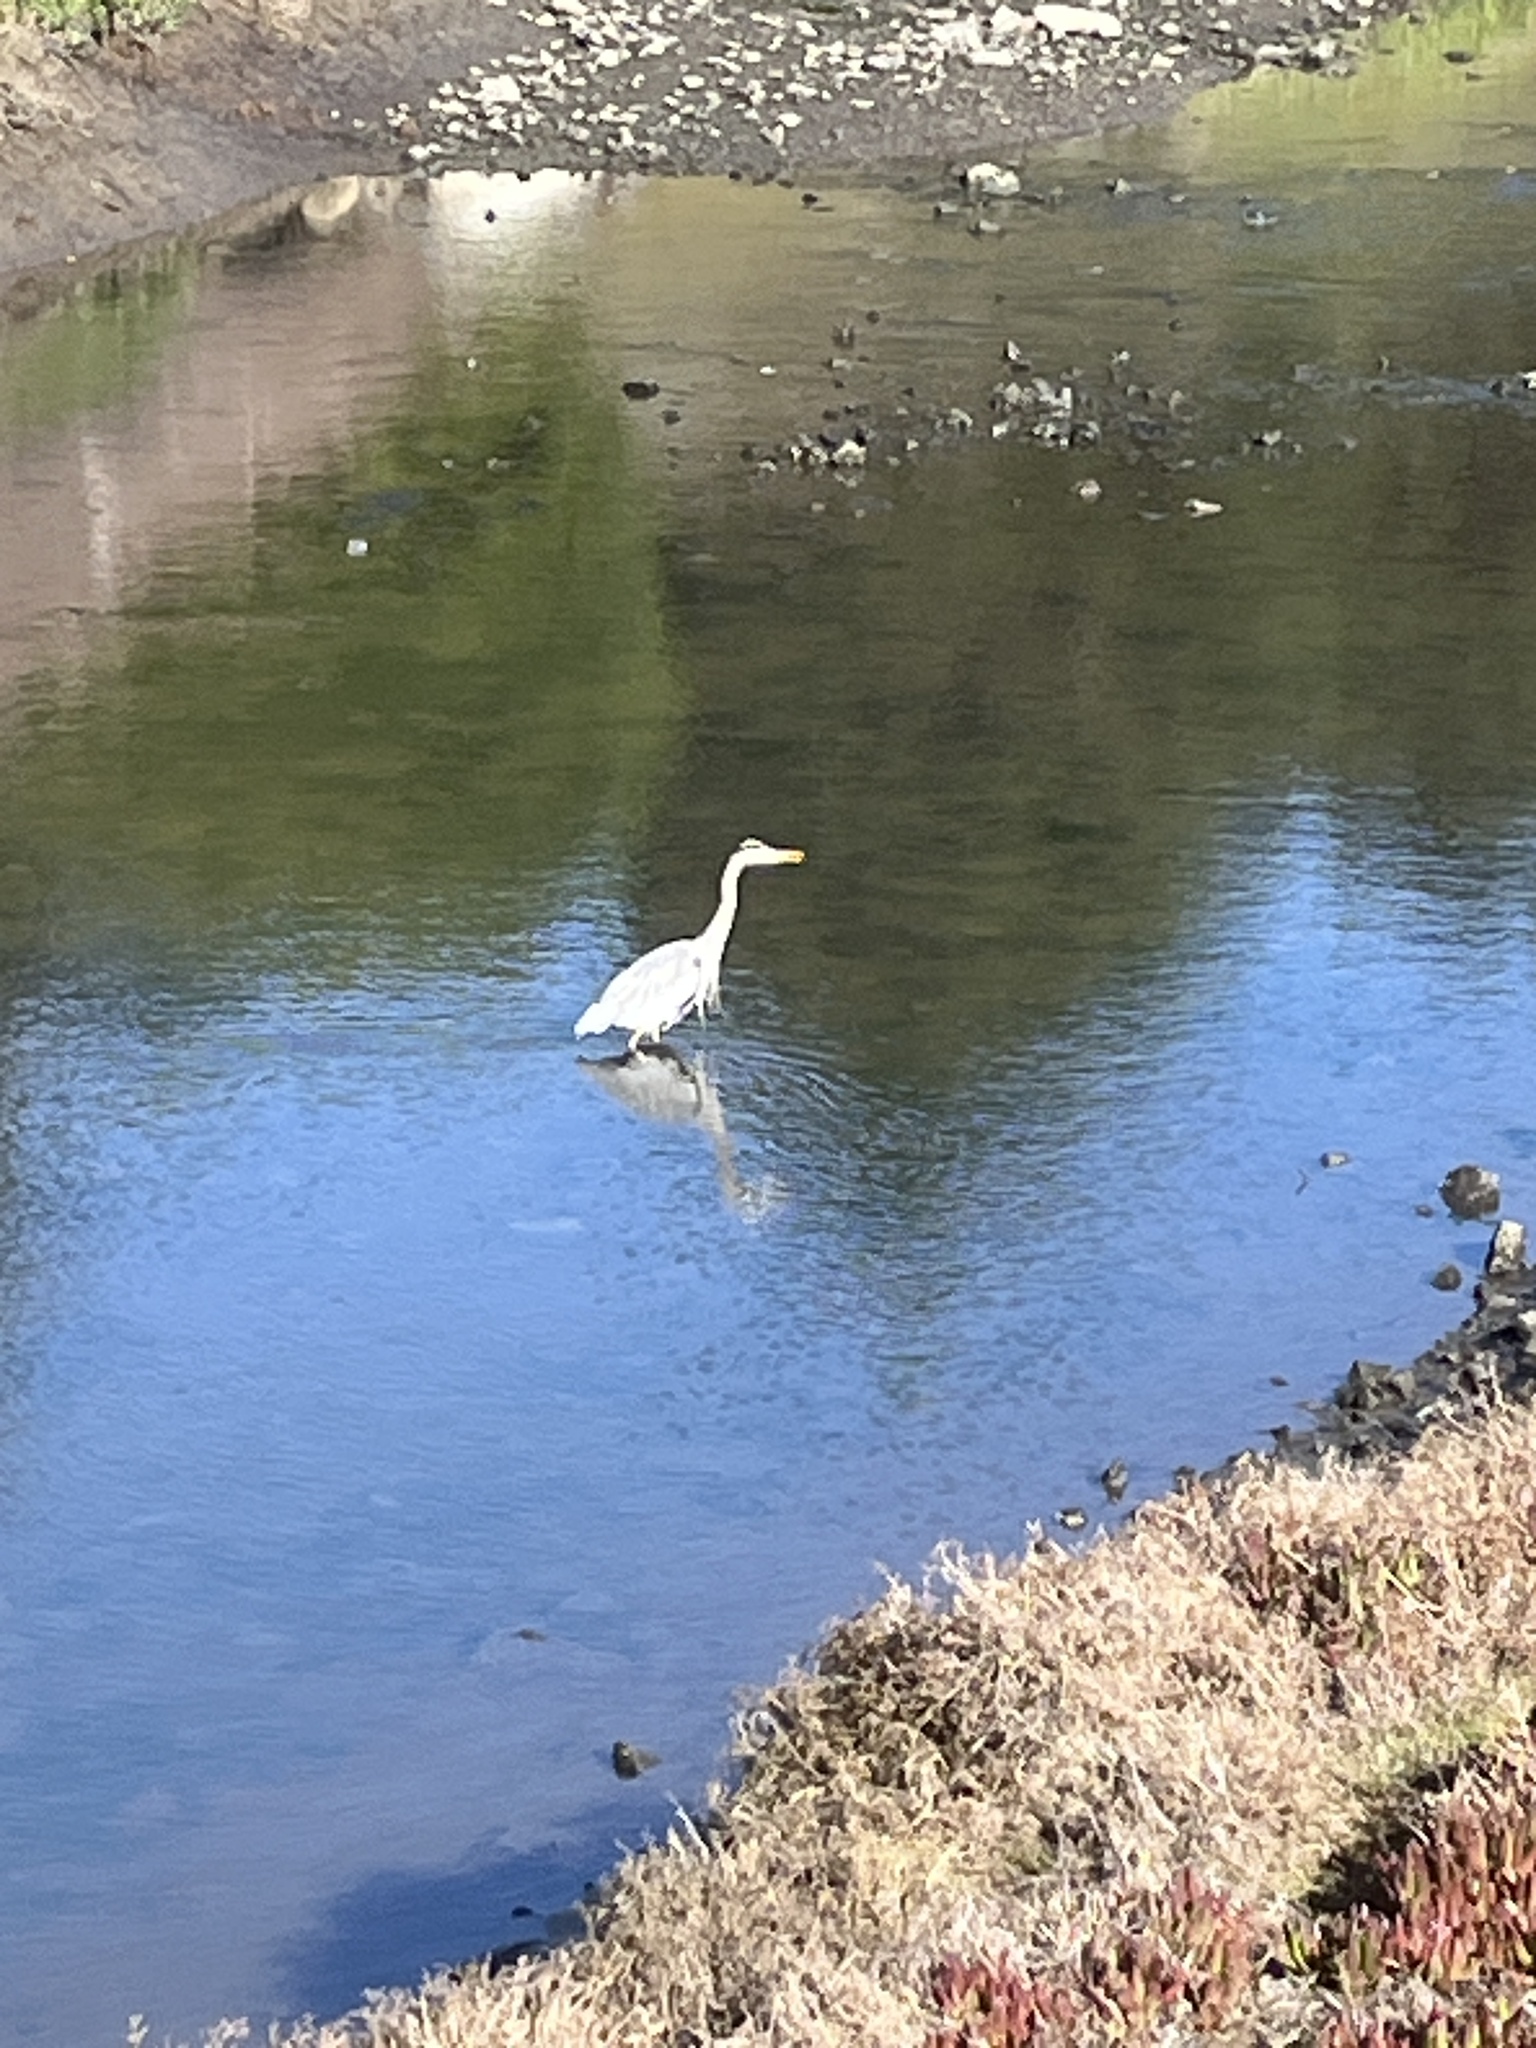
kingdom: Animalia
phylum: Chordata
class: Aves
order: Pelecaniformes
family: Ardeidae
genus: Ardea
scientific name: Ardea herodias
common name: Great blue heron
